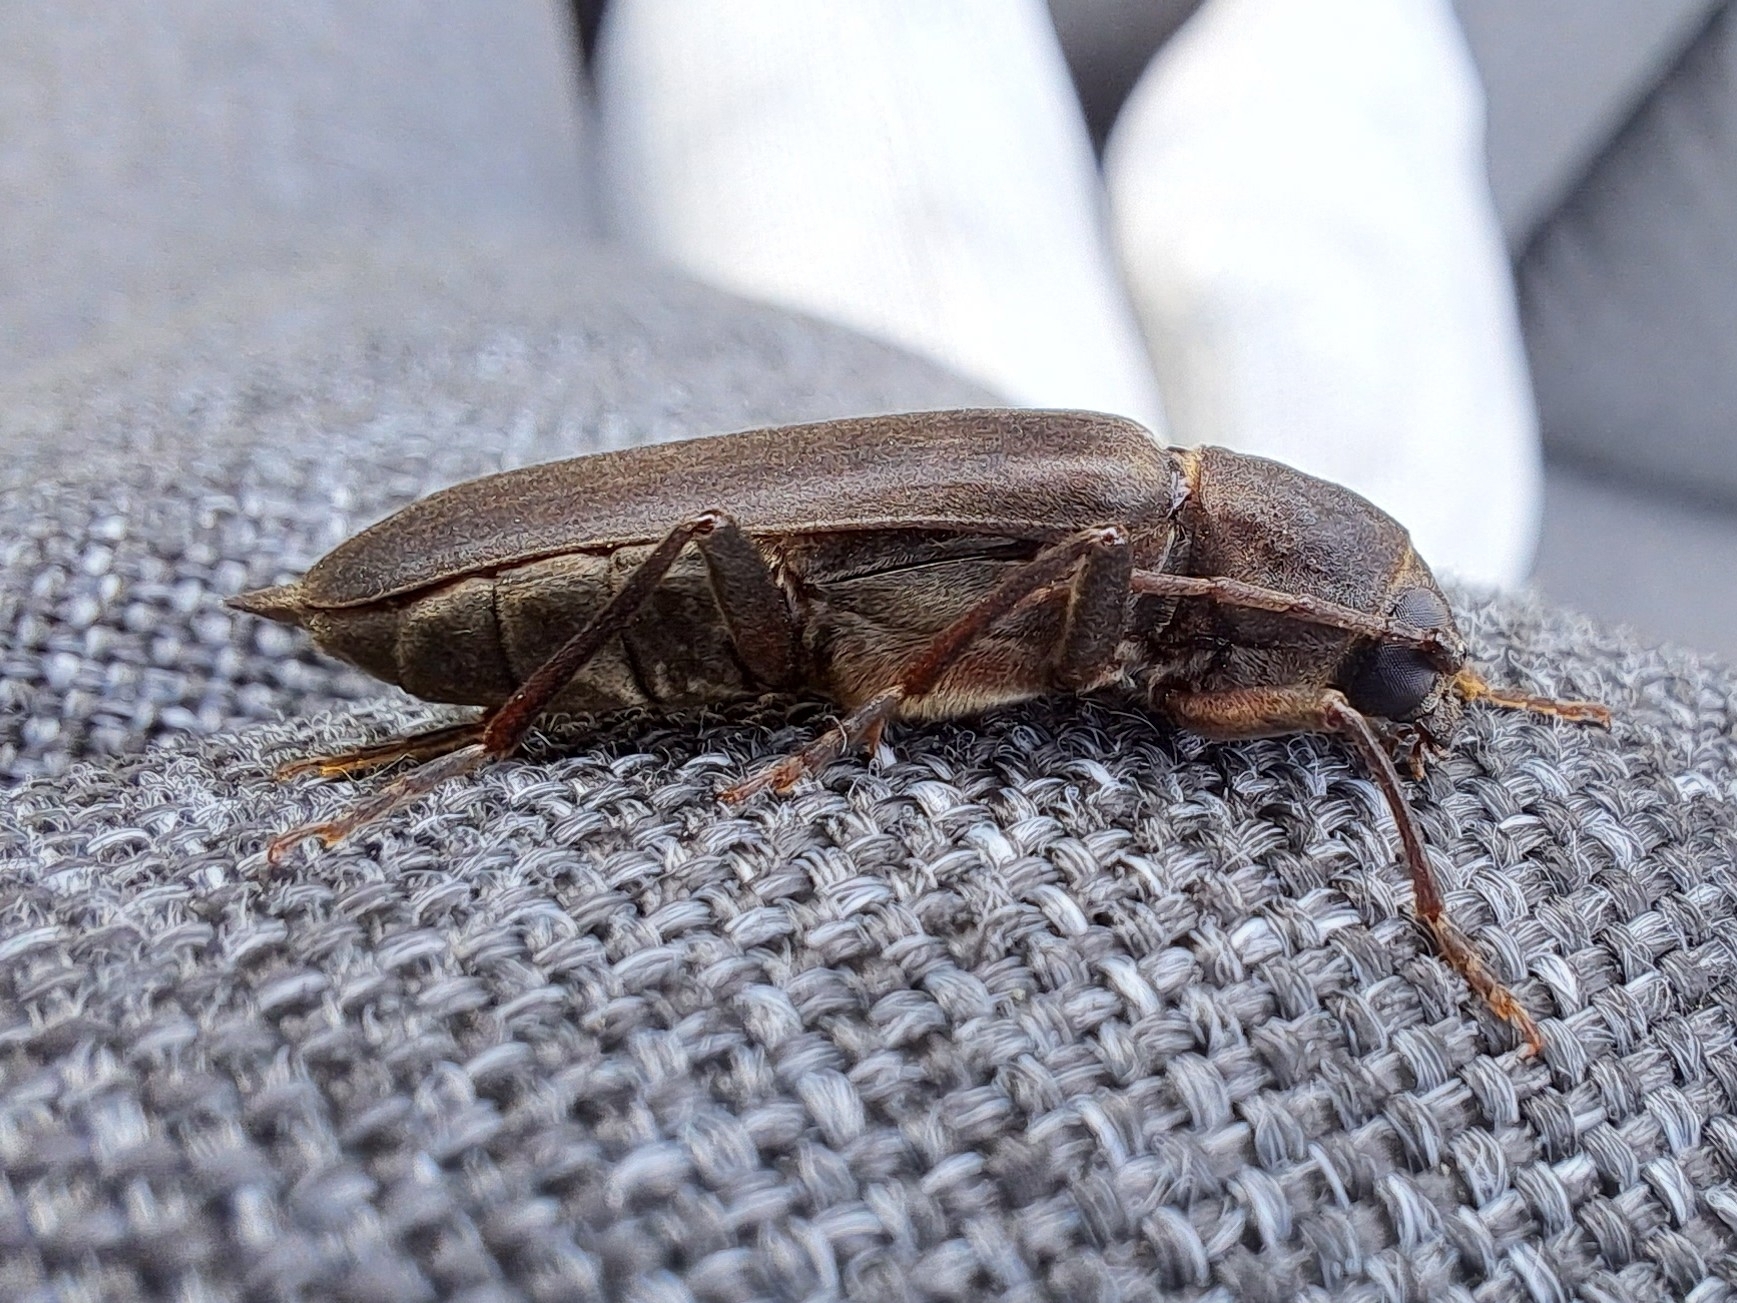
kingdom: Animalia
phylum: Arthropoda
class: Insecta
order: Coleoptera
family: Cerambycidae
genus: Arhopalus
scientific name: Arhopalus ferus
